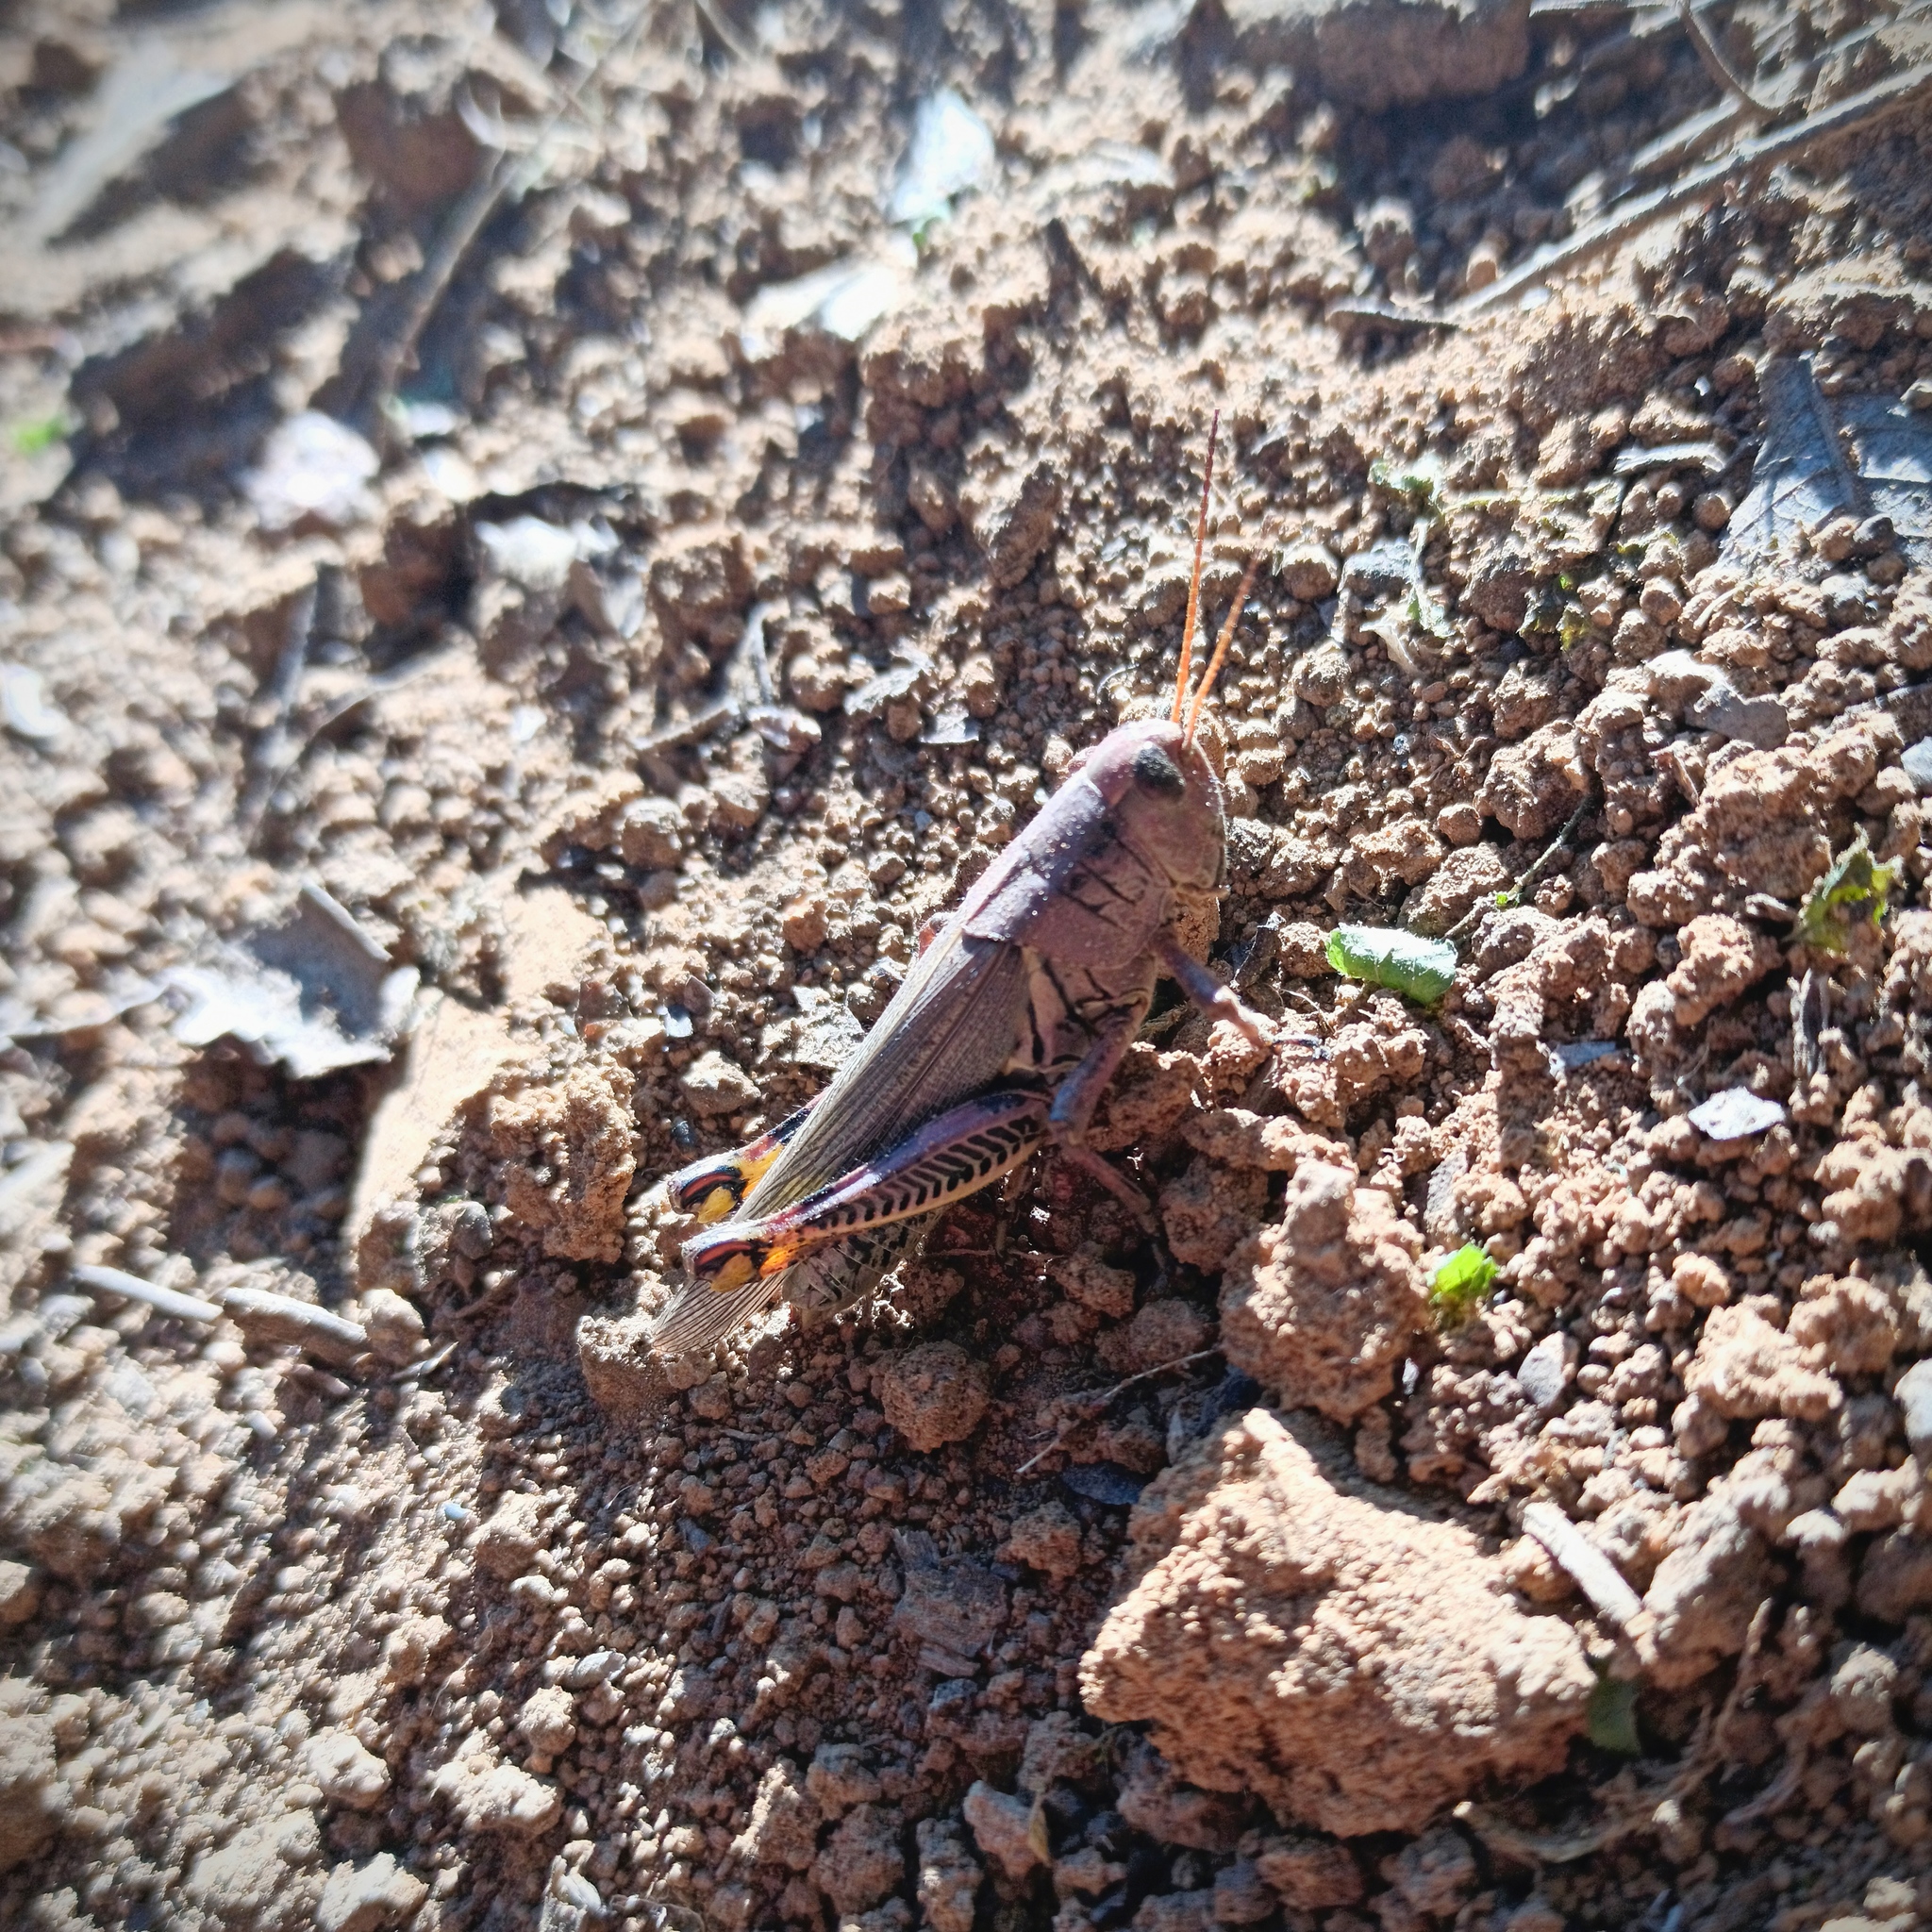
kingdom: Animalia
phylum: Arthropoda
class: Insecta
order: Orthoptera
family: Acrididae
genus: Melanoplus
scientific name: Melanoplus differentialis
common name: Differential grasshopper
